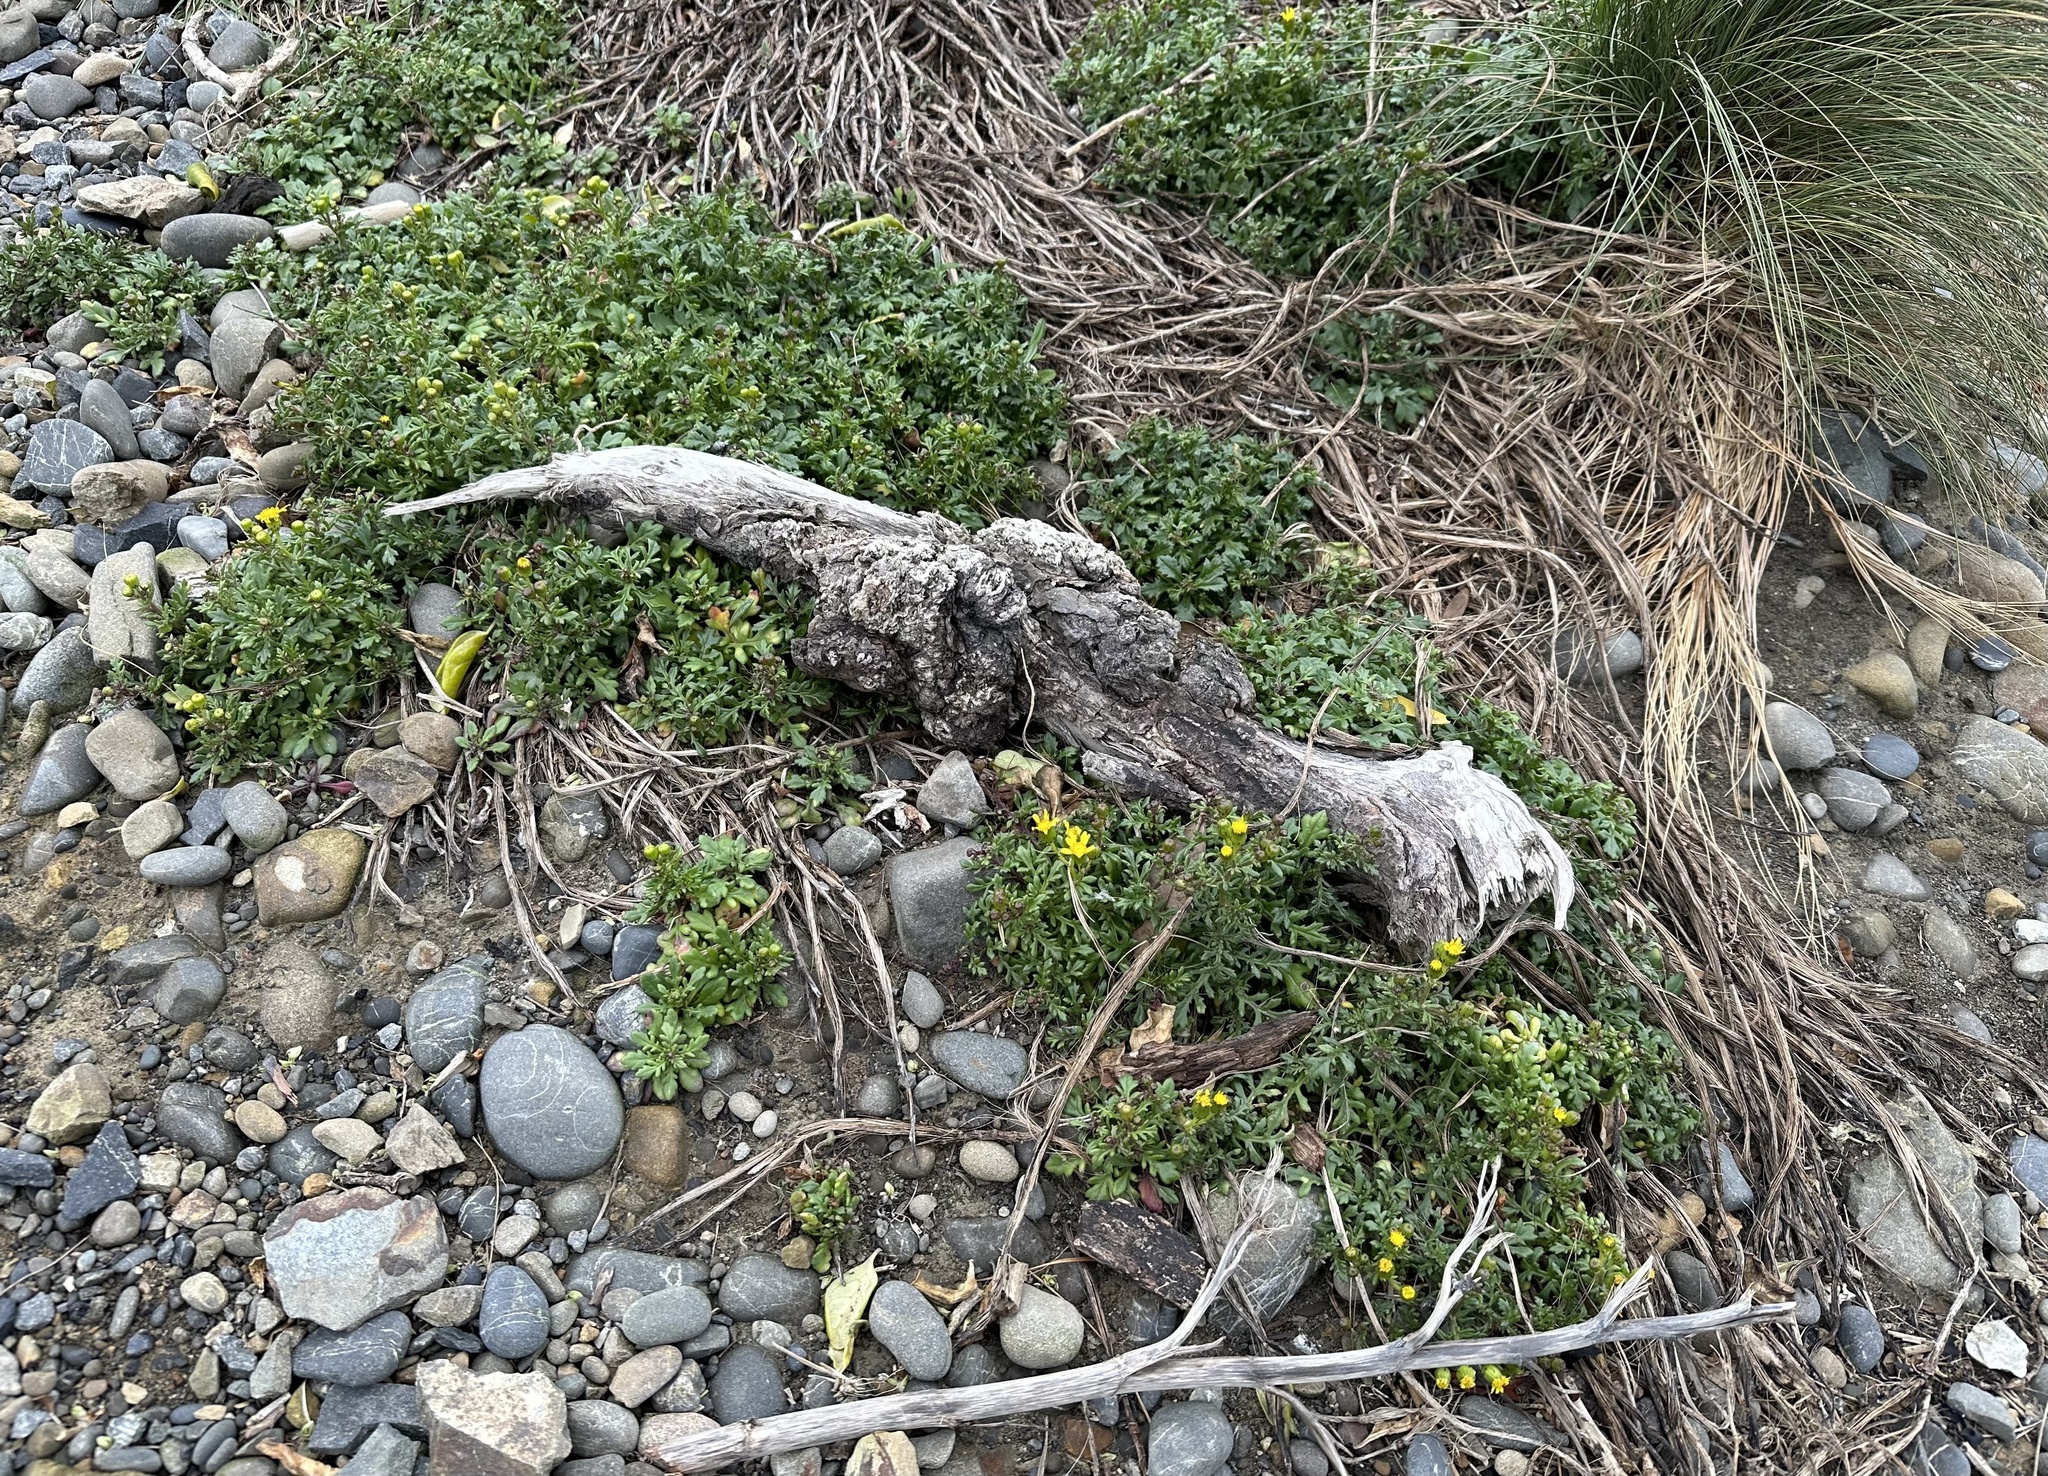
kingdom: Plantae
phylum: Tracheophyta
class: Magnoliopsida
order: Asterales
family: Asteraceae
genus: Senecio
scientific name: Senecio lautus
